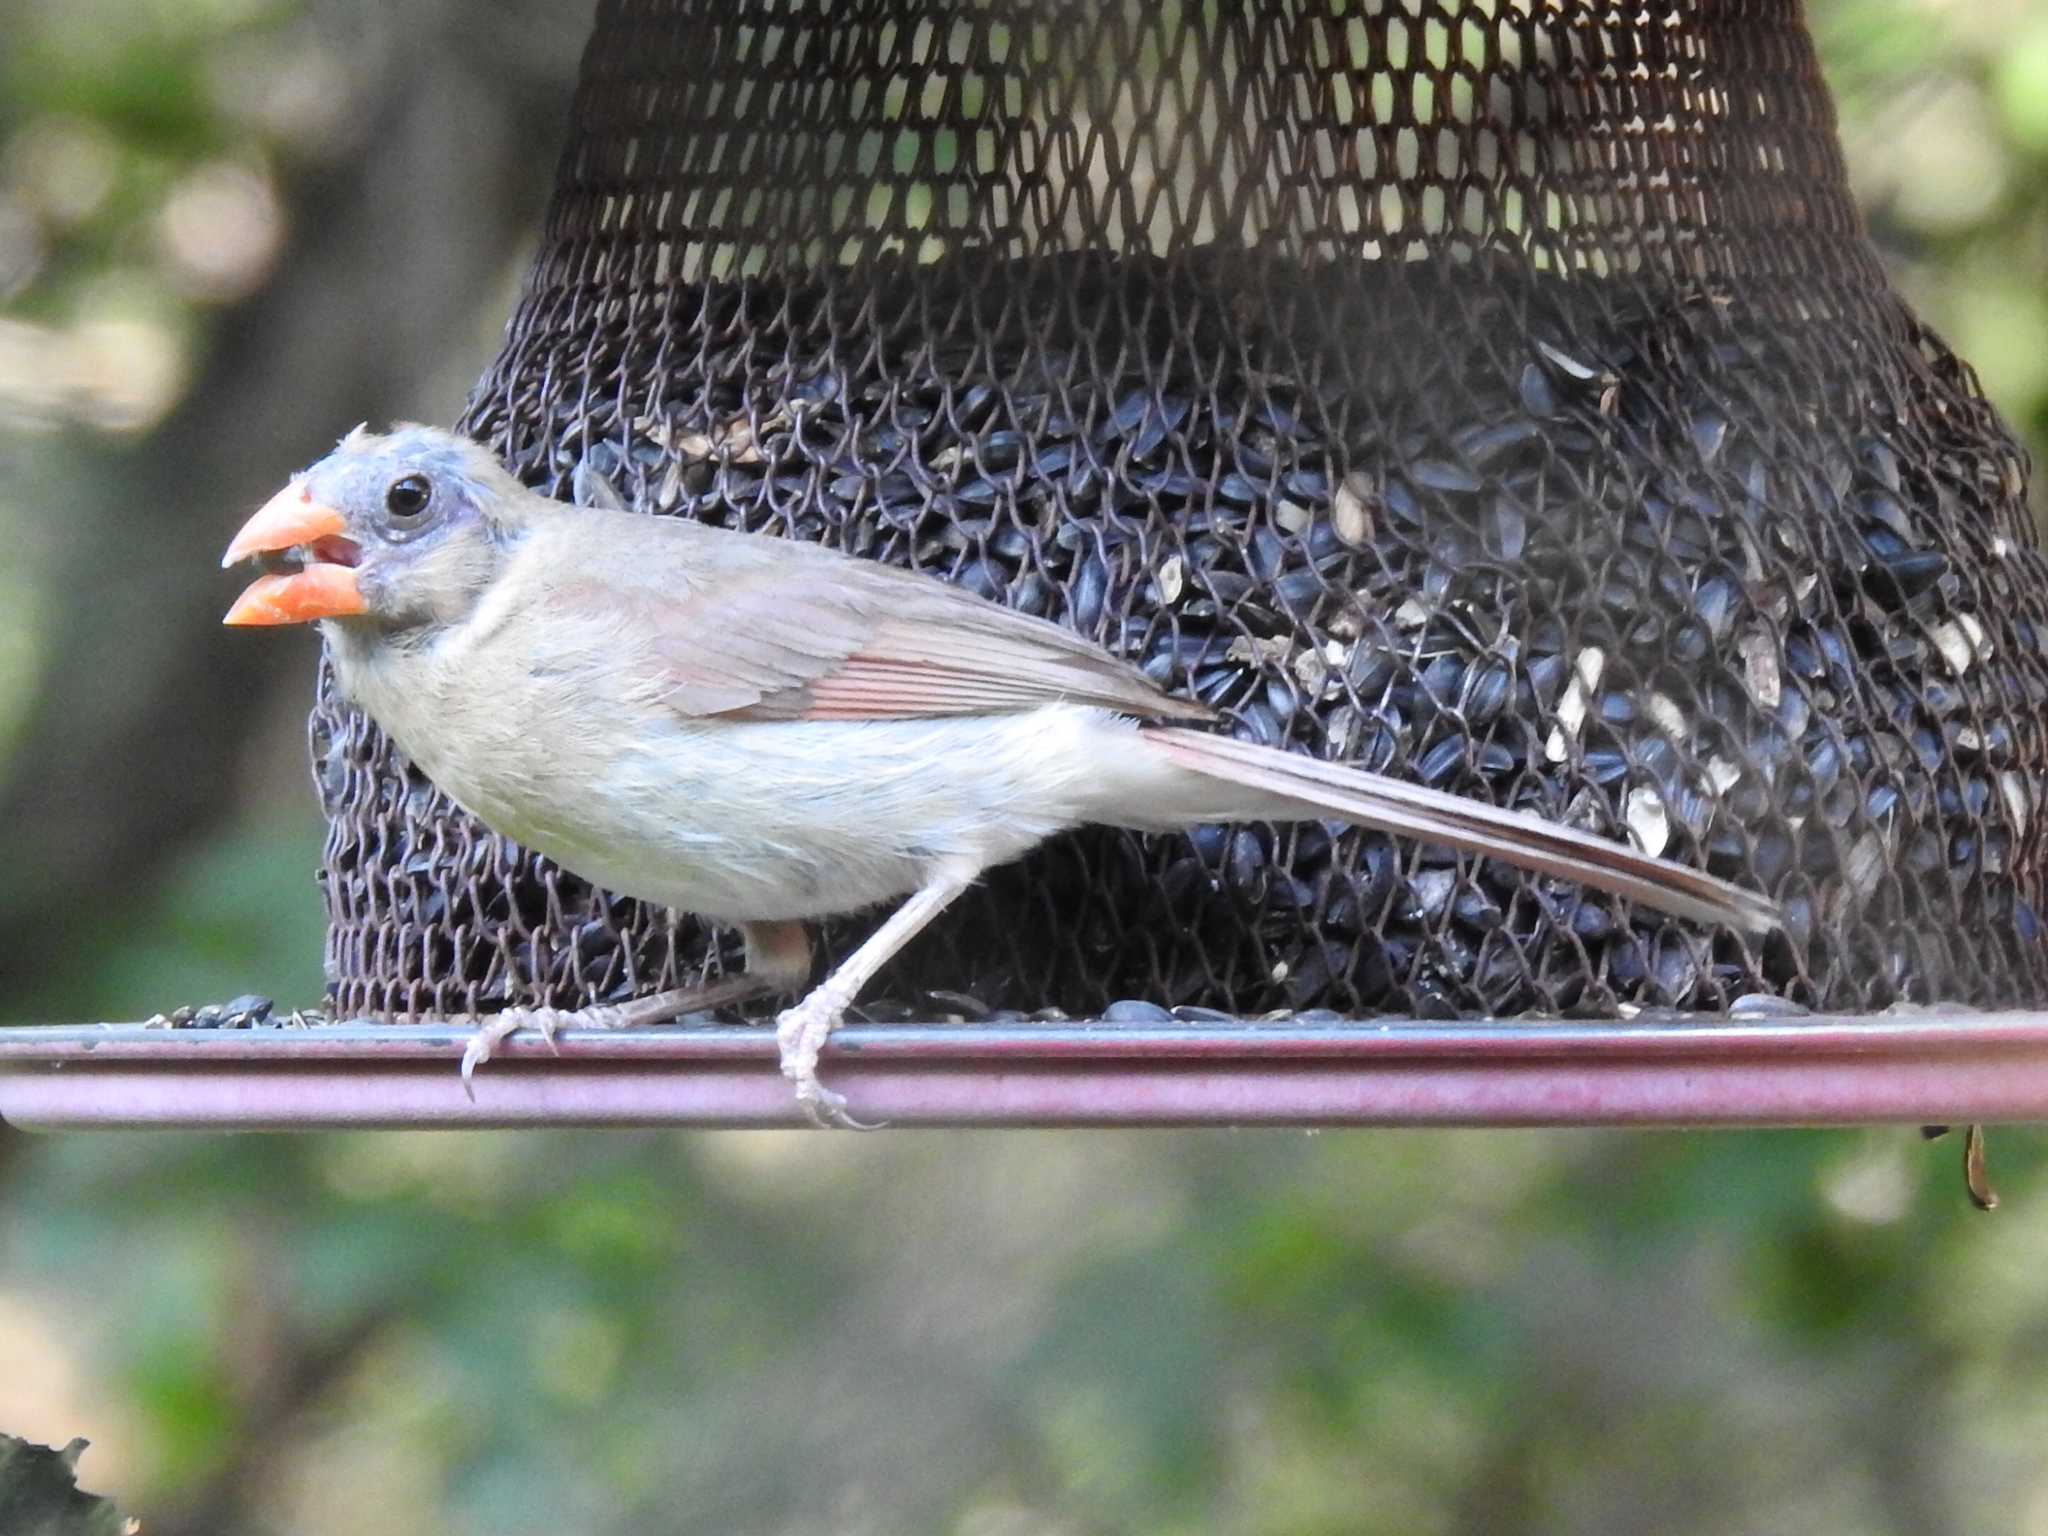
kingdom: Animalia
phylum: Chordata
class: Aves
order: Passeriformes
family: Cardinalidae
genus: Cardinalis
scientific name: Cardinalis cardinalis
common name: Northern cardinal
